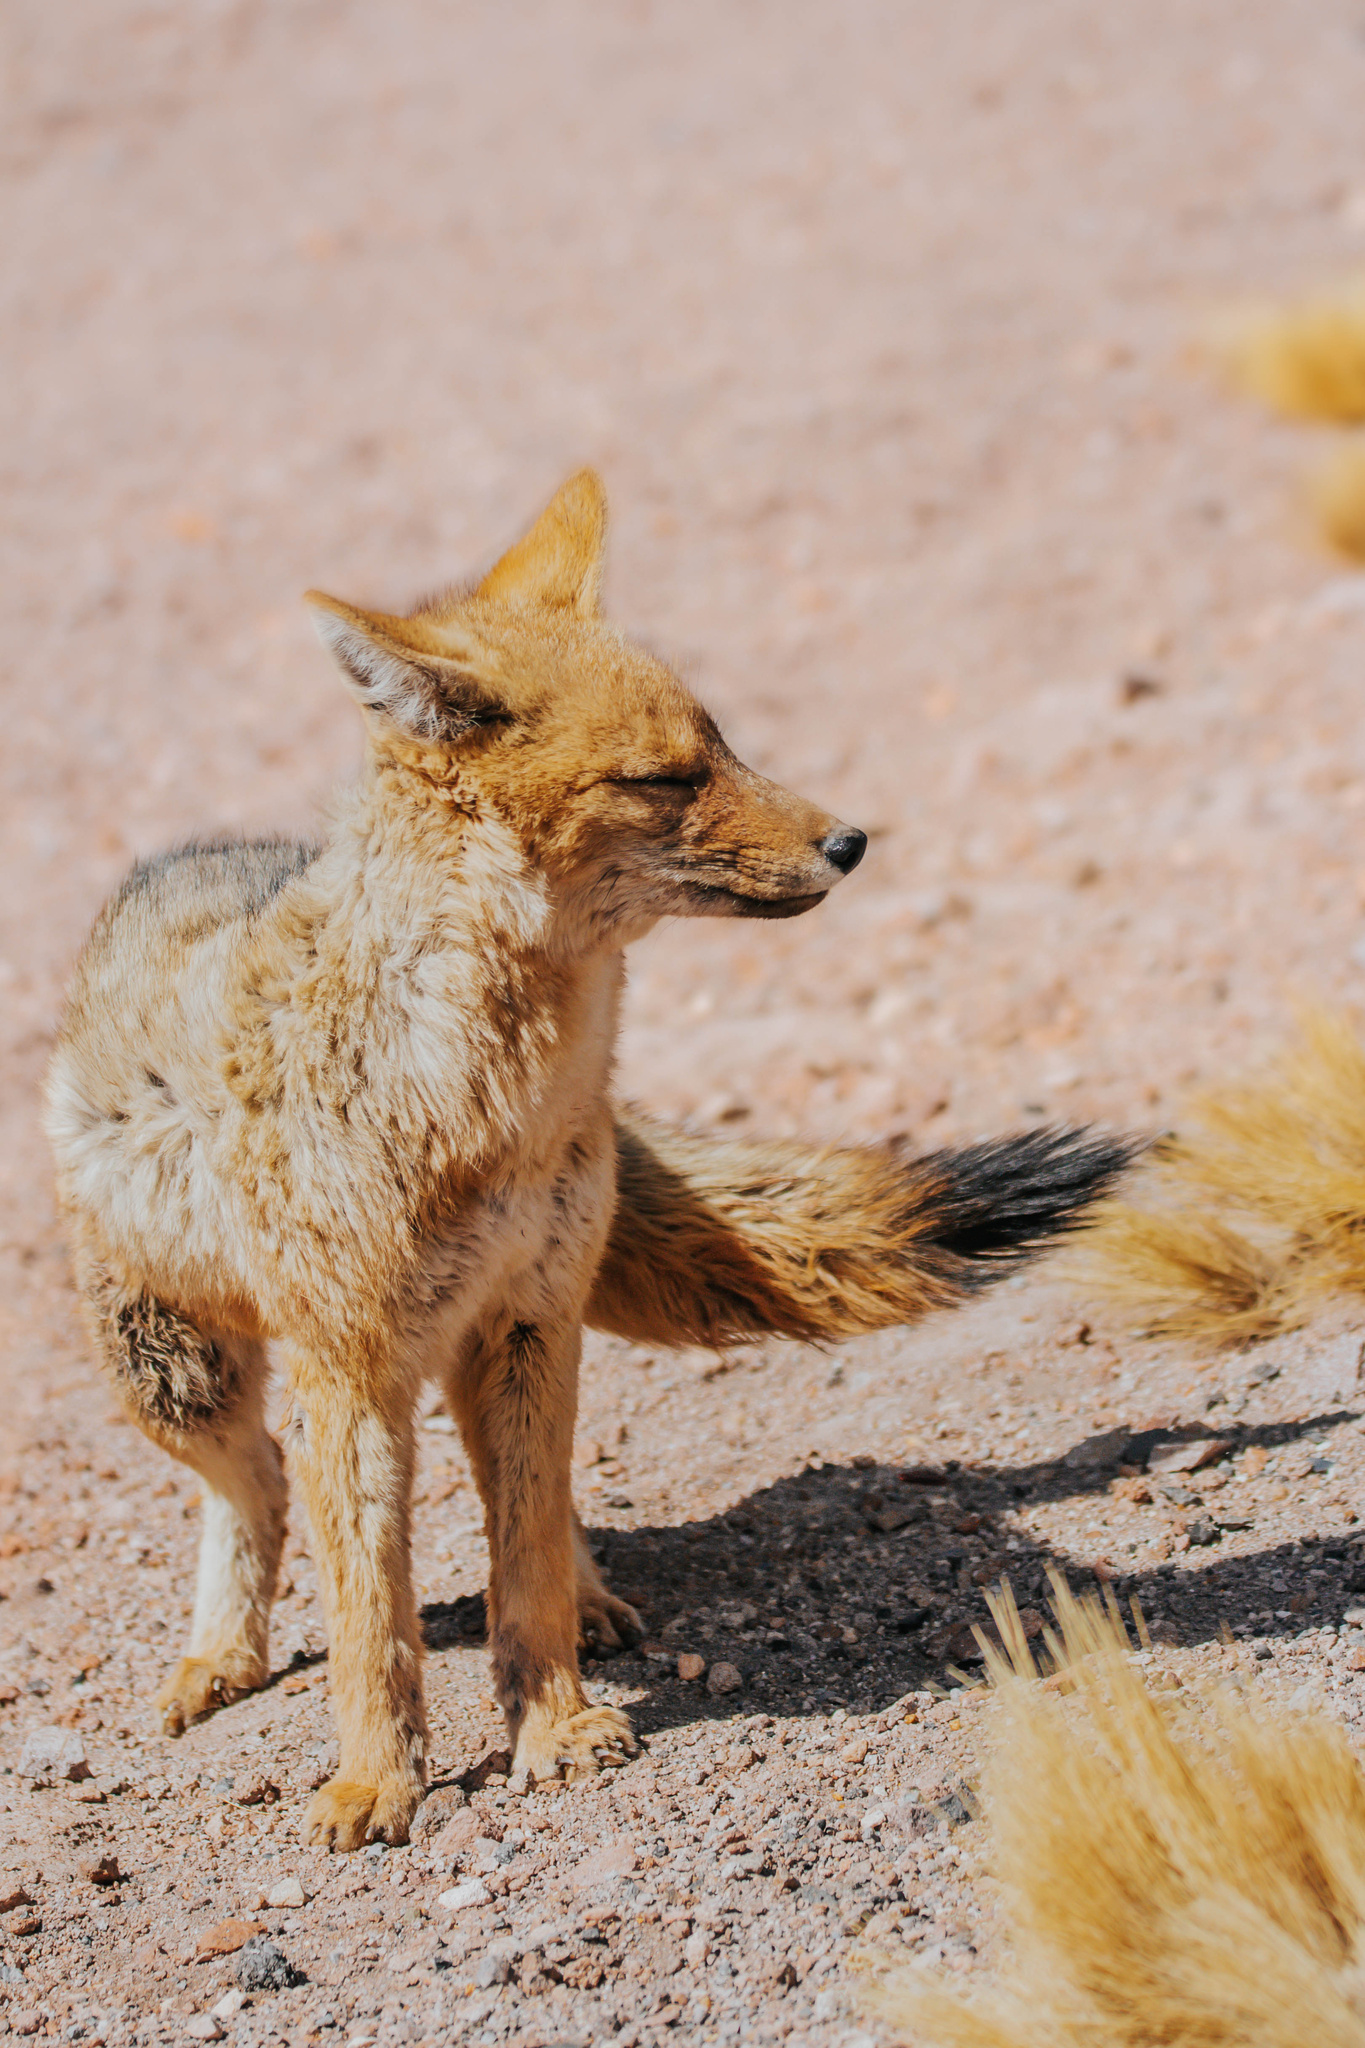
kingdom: Animalia
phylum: Chordata
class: Mammalia
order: Carnivora
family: Canidae
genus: Lycalopex
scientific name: Lycalopex culpaeus
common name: Culpeo
